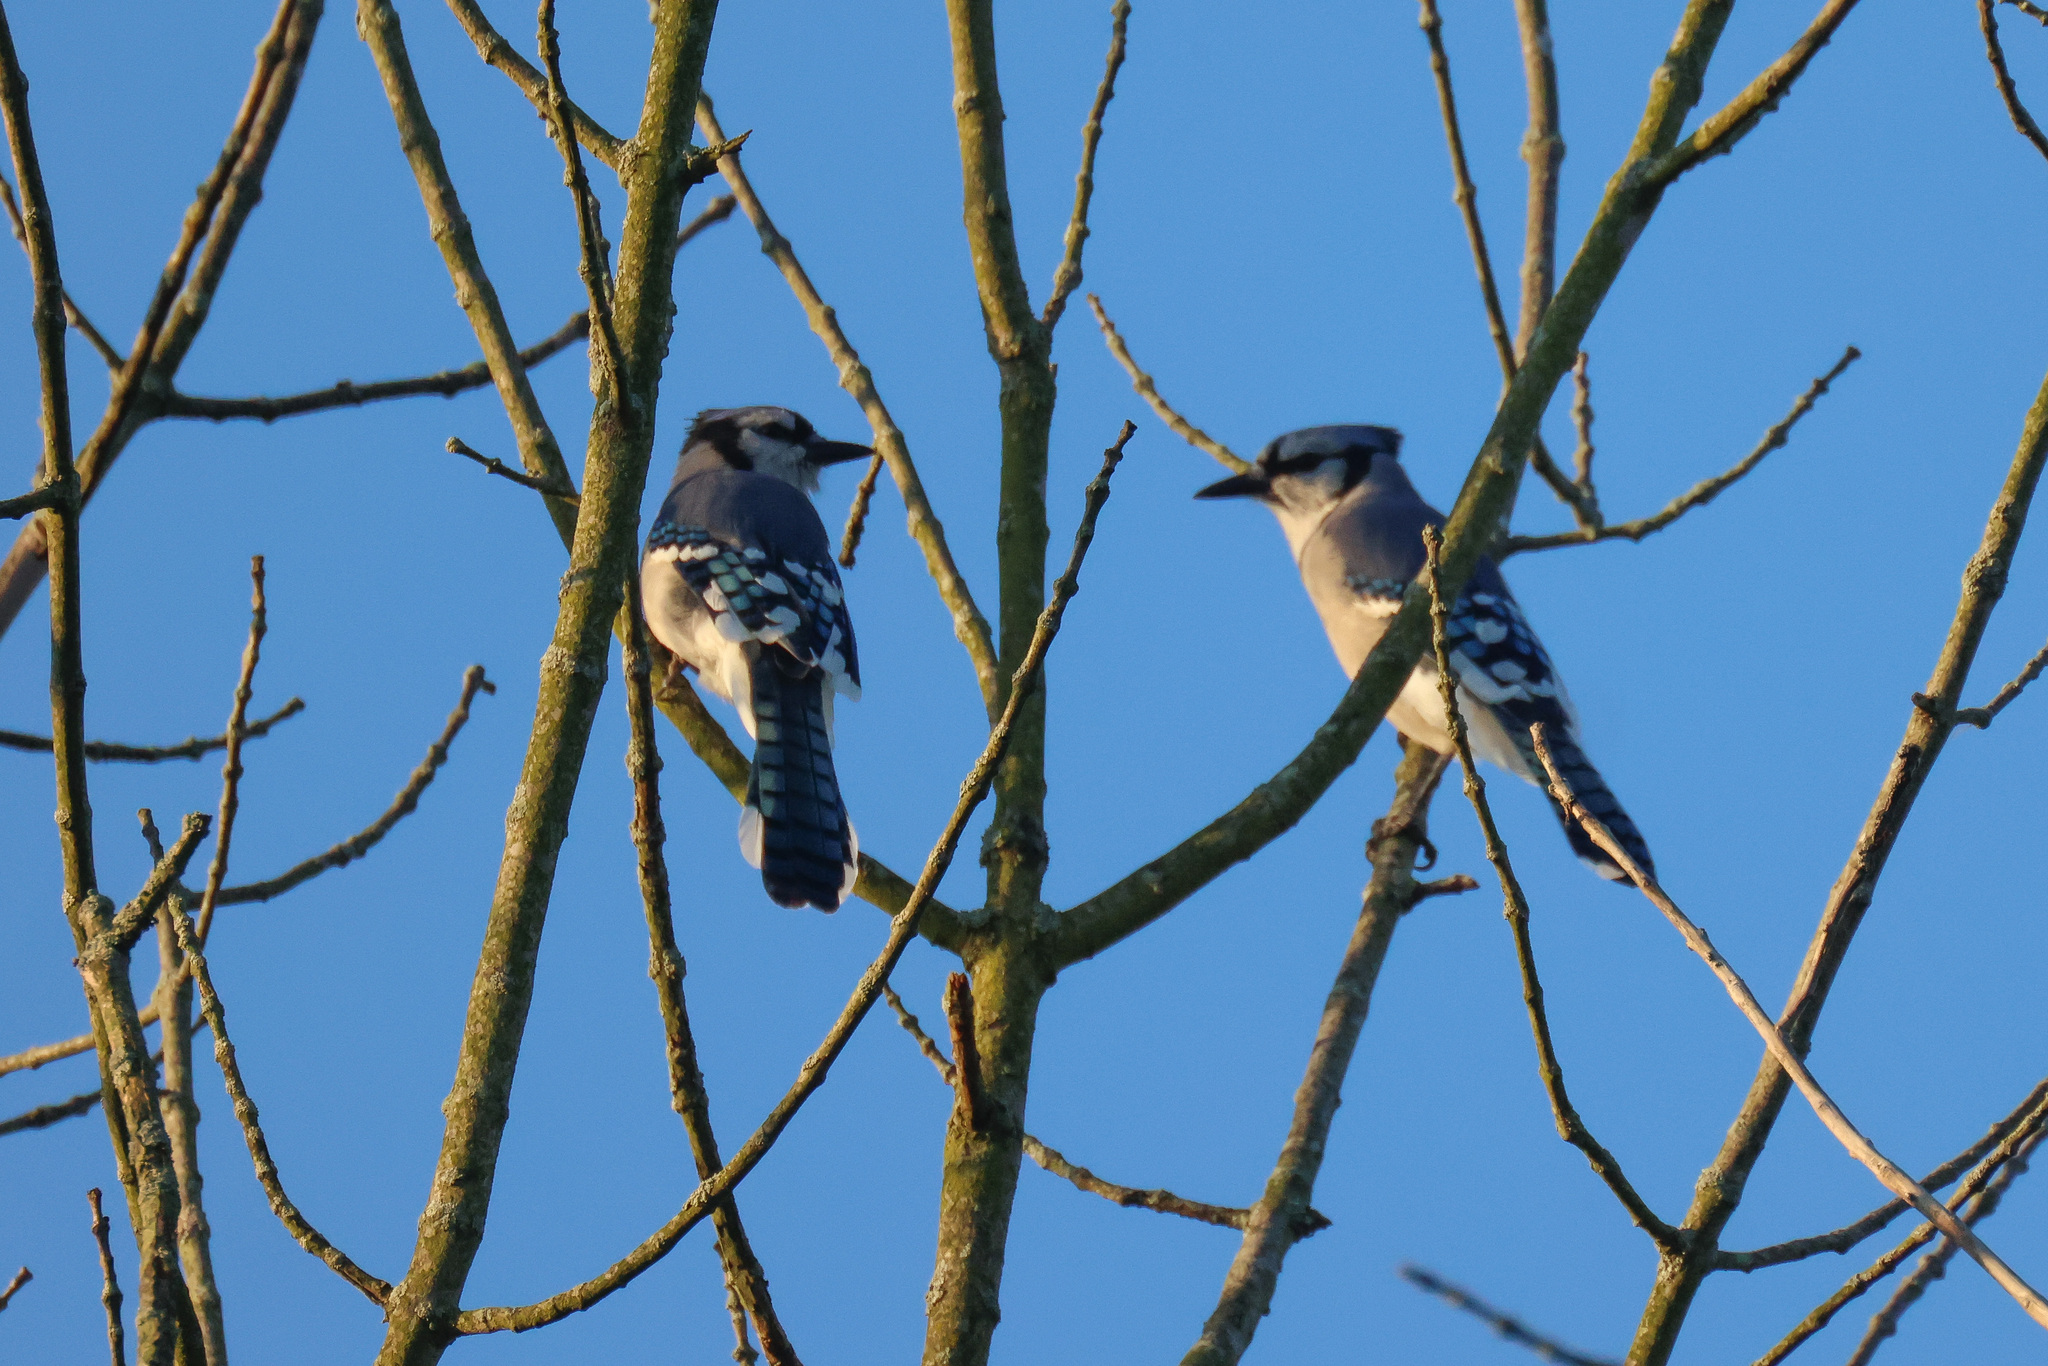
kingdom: Animalia
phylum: Chordata
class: Aves
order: Passeriformes
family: Corvidae
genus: Cyanocitta
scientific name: Cyanocitta cristata
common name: Blue jay
